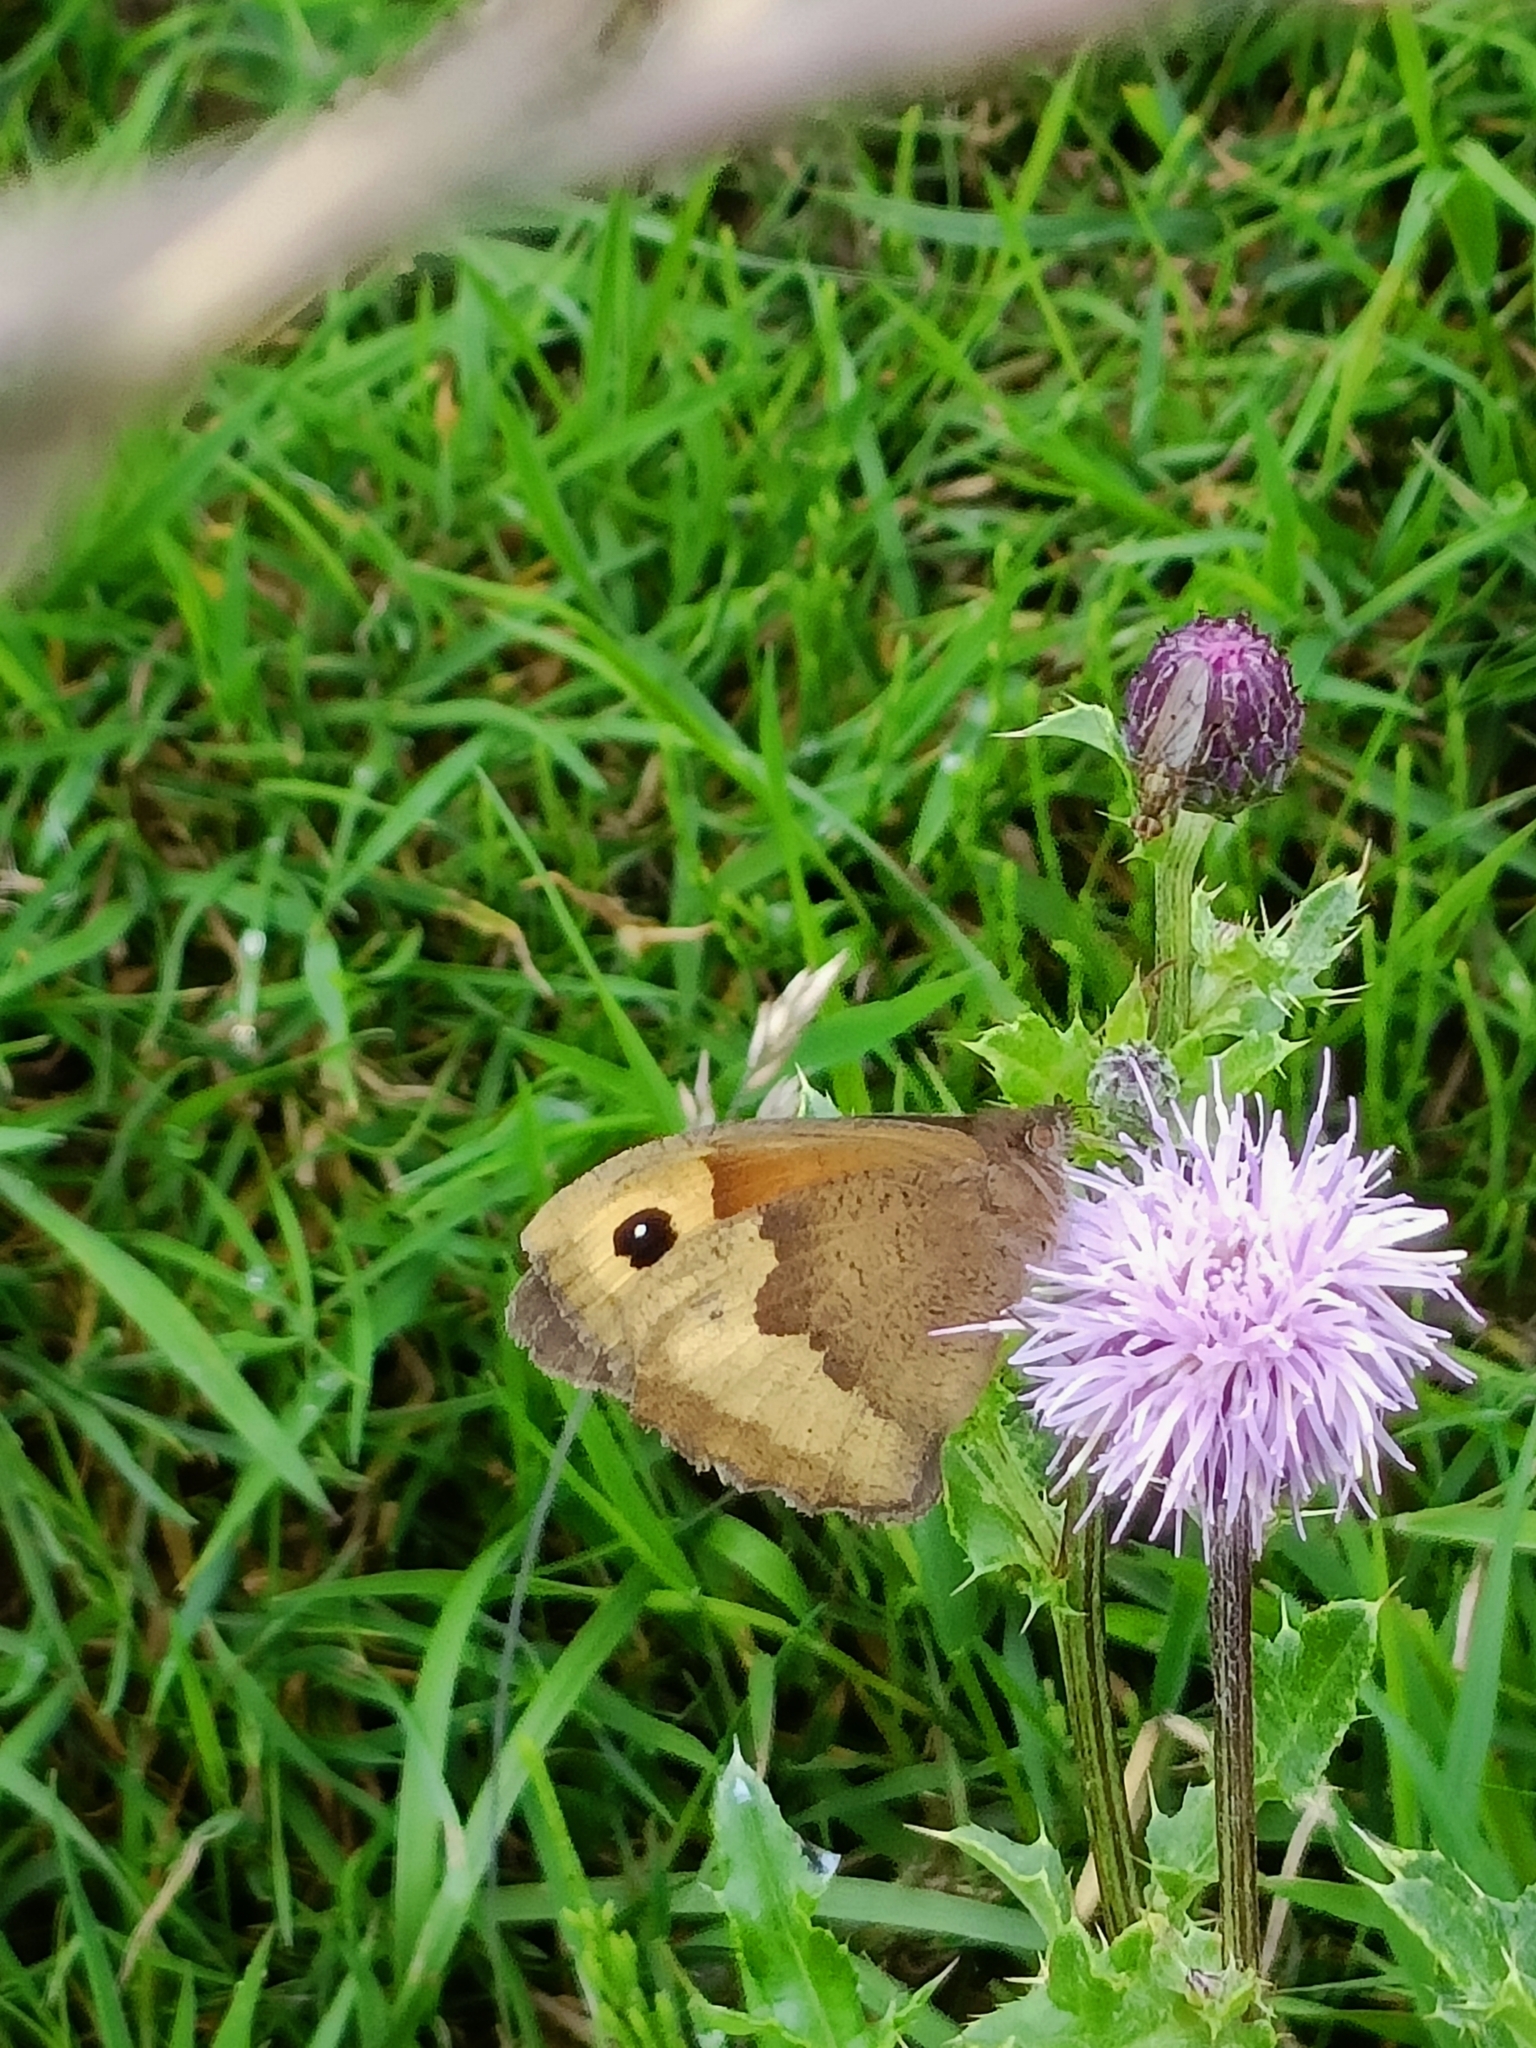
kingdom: Animalia
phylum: Arthropoda
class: Insecta
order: Lepidoptera
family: Nymphalidae
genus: Maniola
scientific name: Maniola jurtina
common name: Meadow brown
